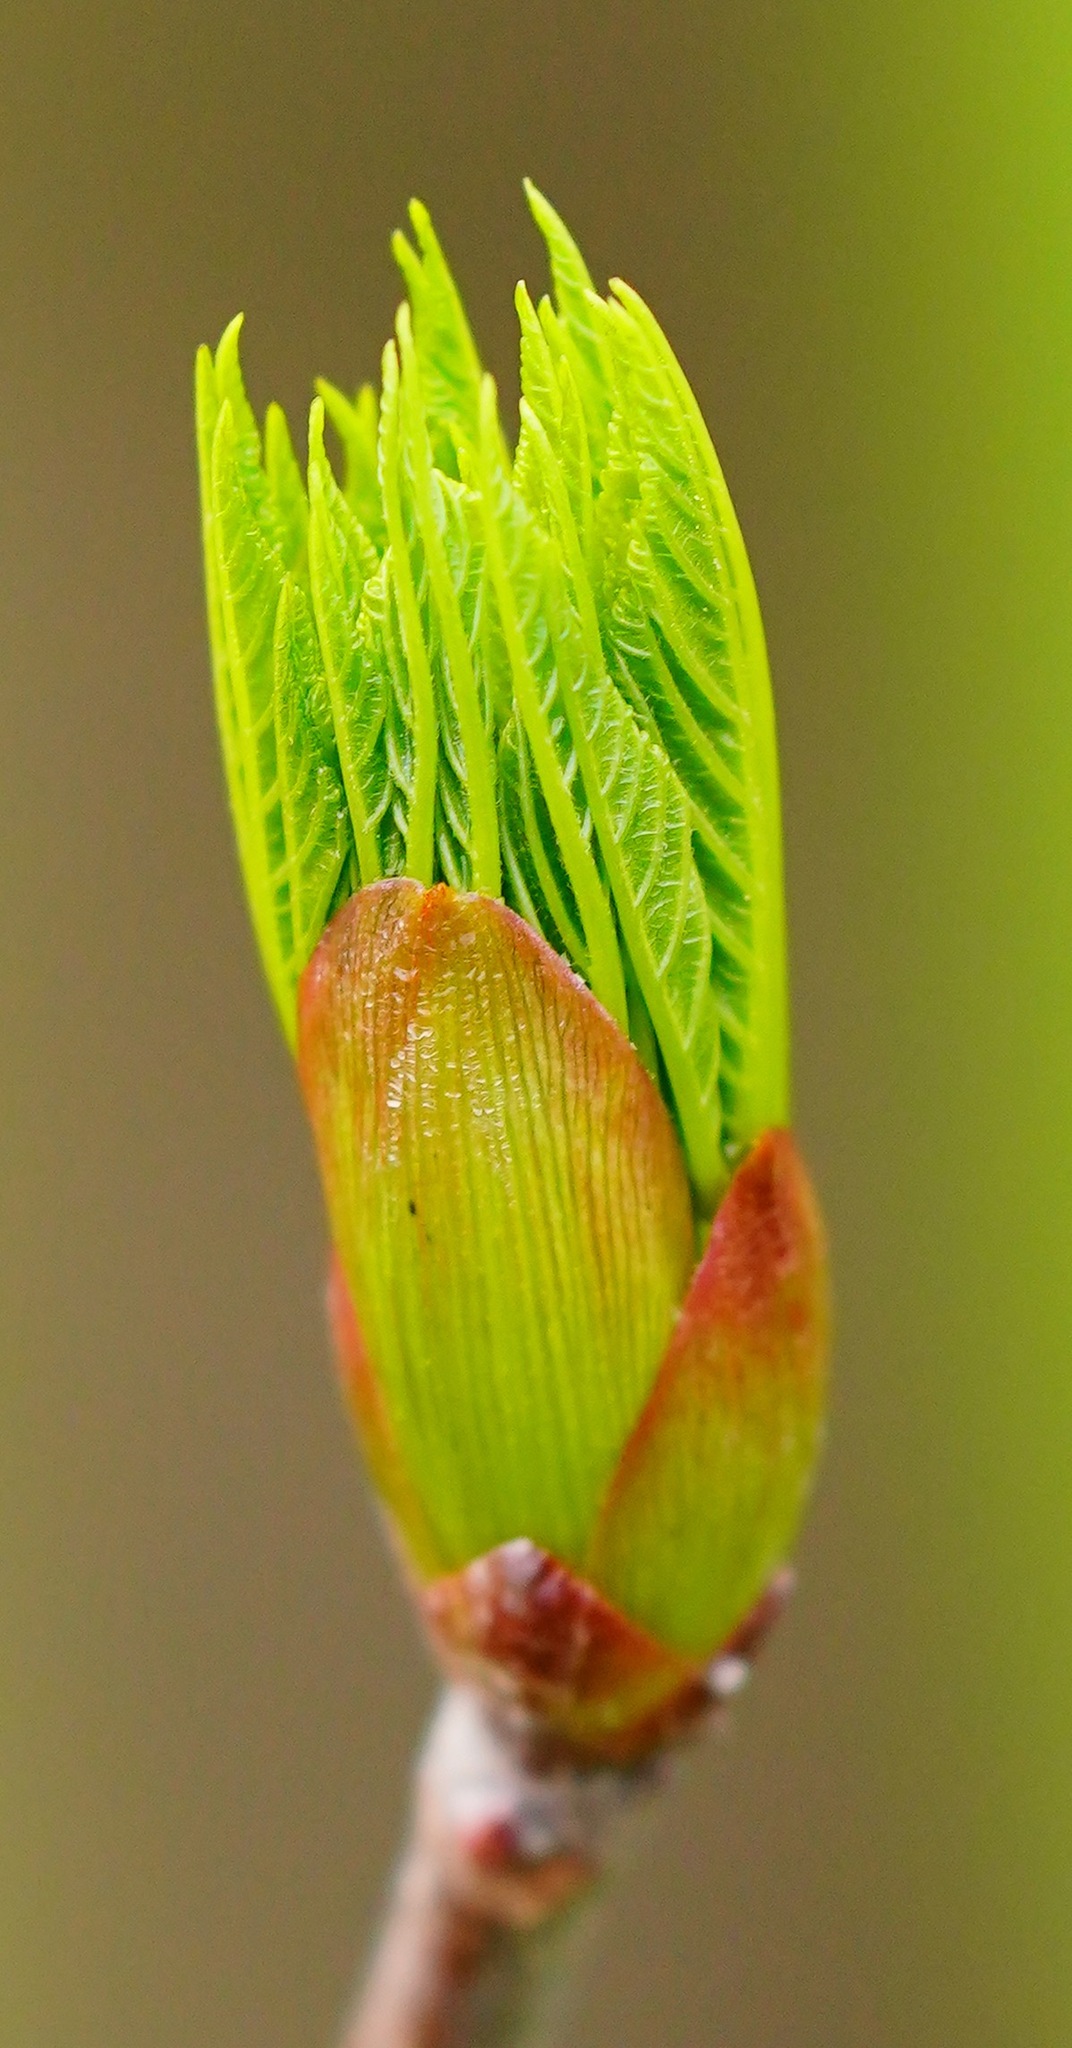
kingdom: Plantae
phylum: Tracheophyta
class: Magnoliopsida
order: Sapindales
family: Sapindaceae
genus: Aesculus
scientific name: Aesculus californica
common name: California buckeye
